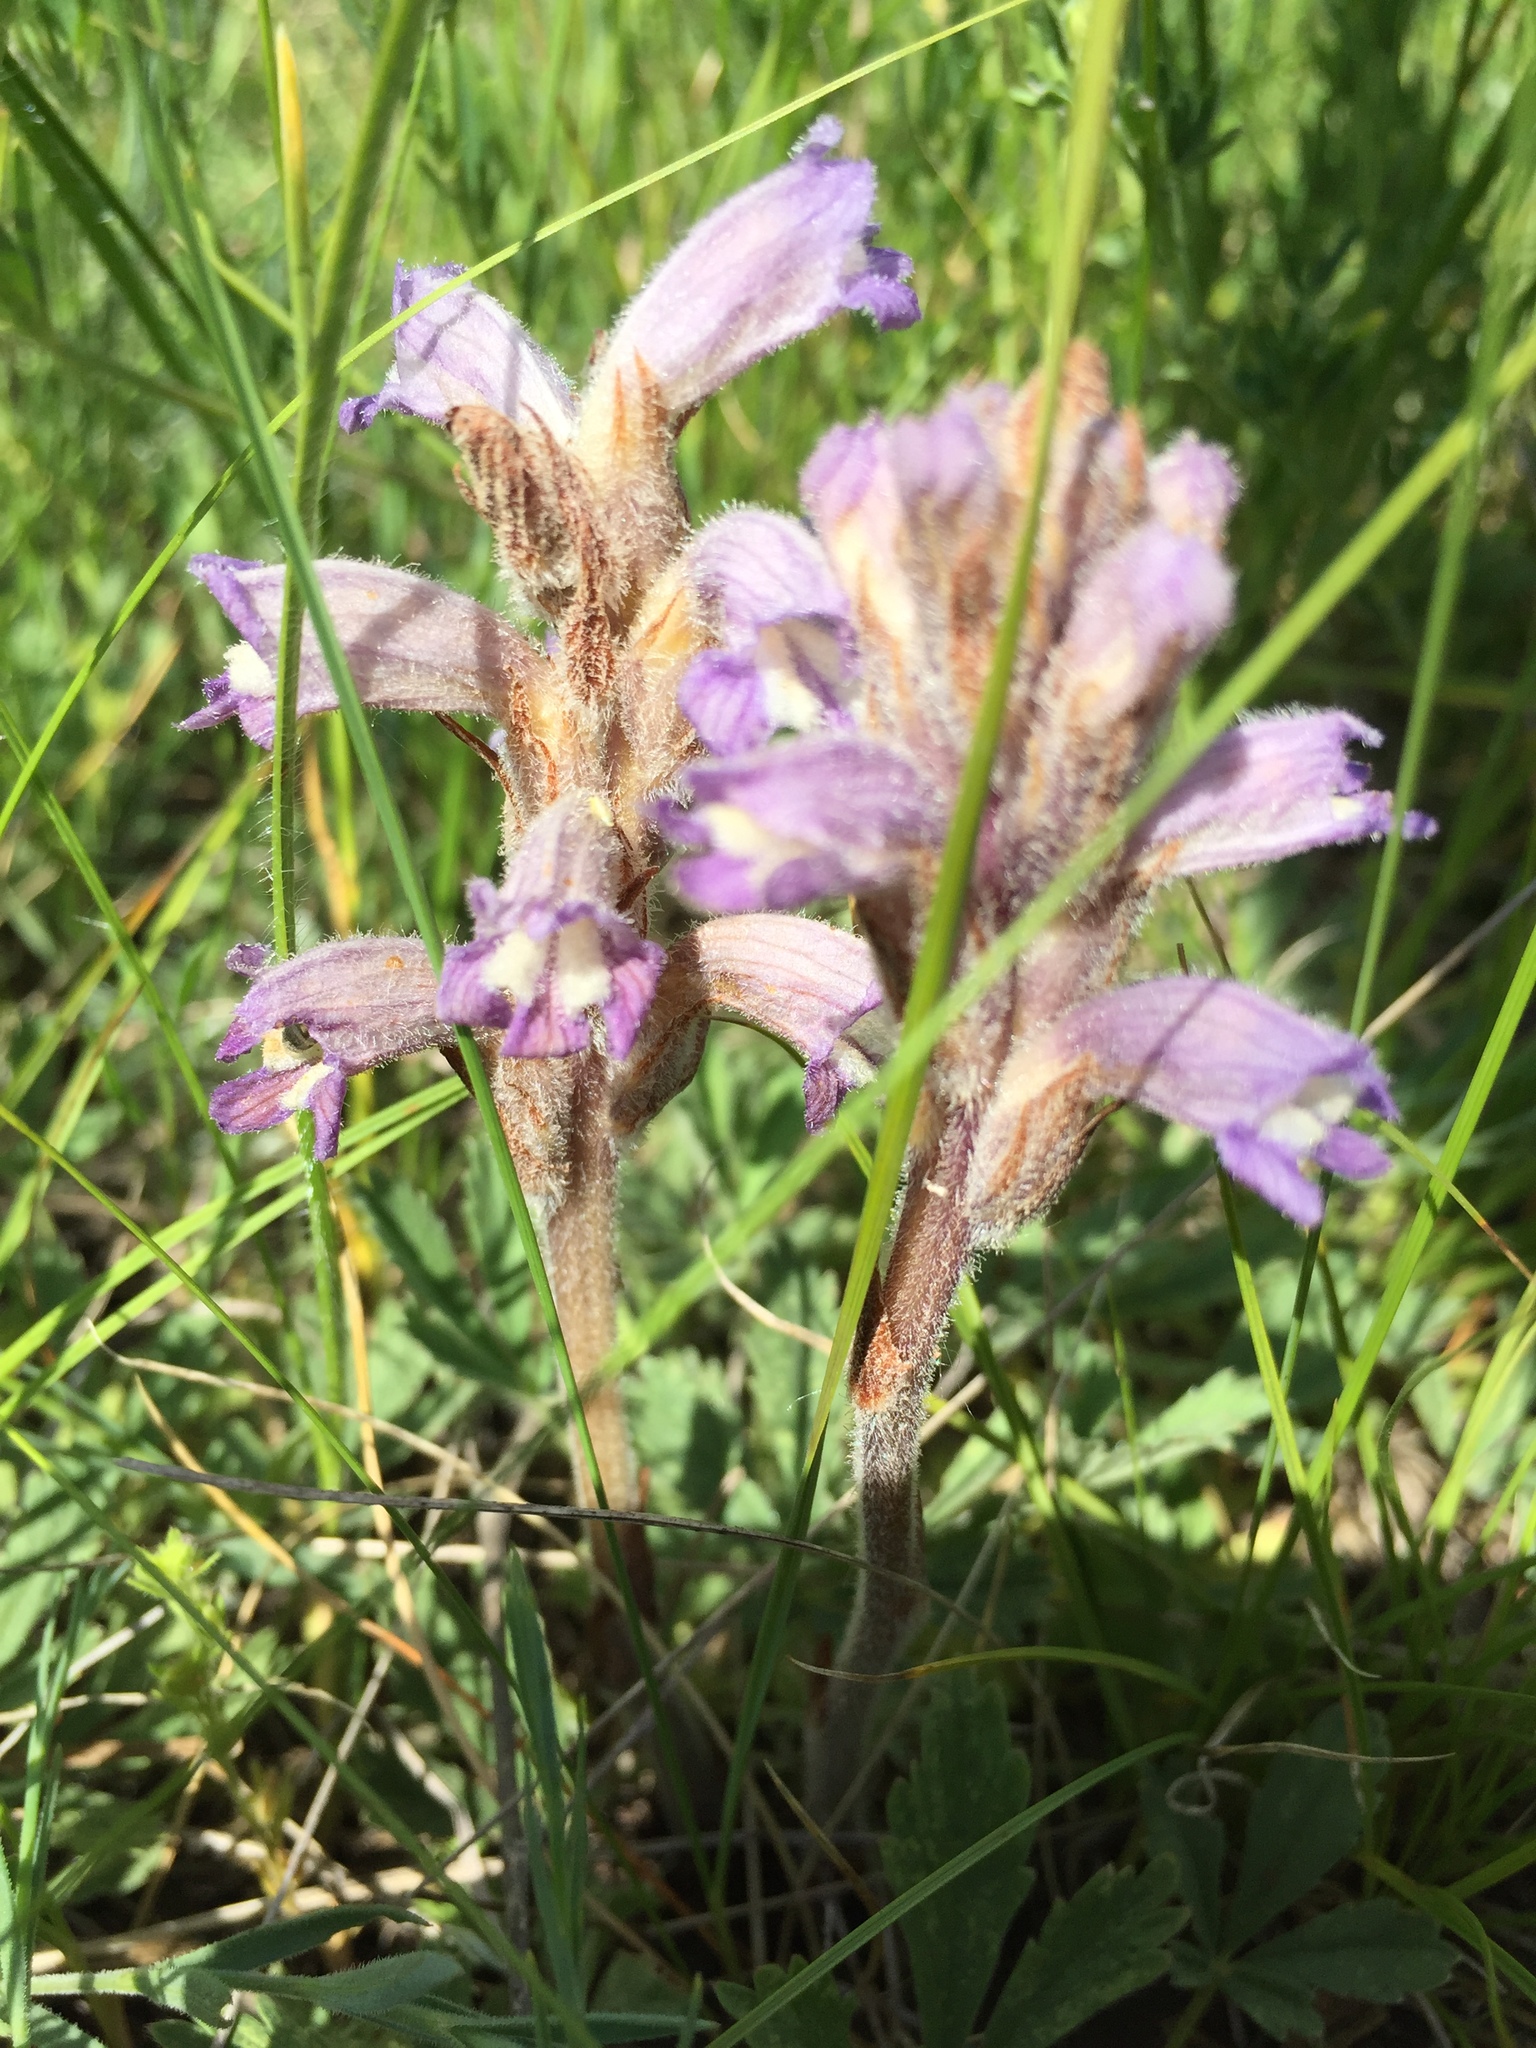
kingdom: Plantae
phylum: Tracheophyta
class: Magnoliopsida
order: Lamiales
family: Orobanchaceae
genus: Phelipanche
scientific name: Phelipanche caesia
